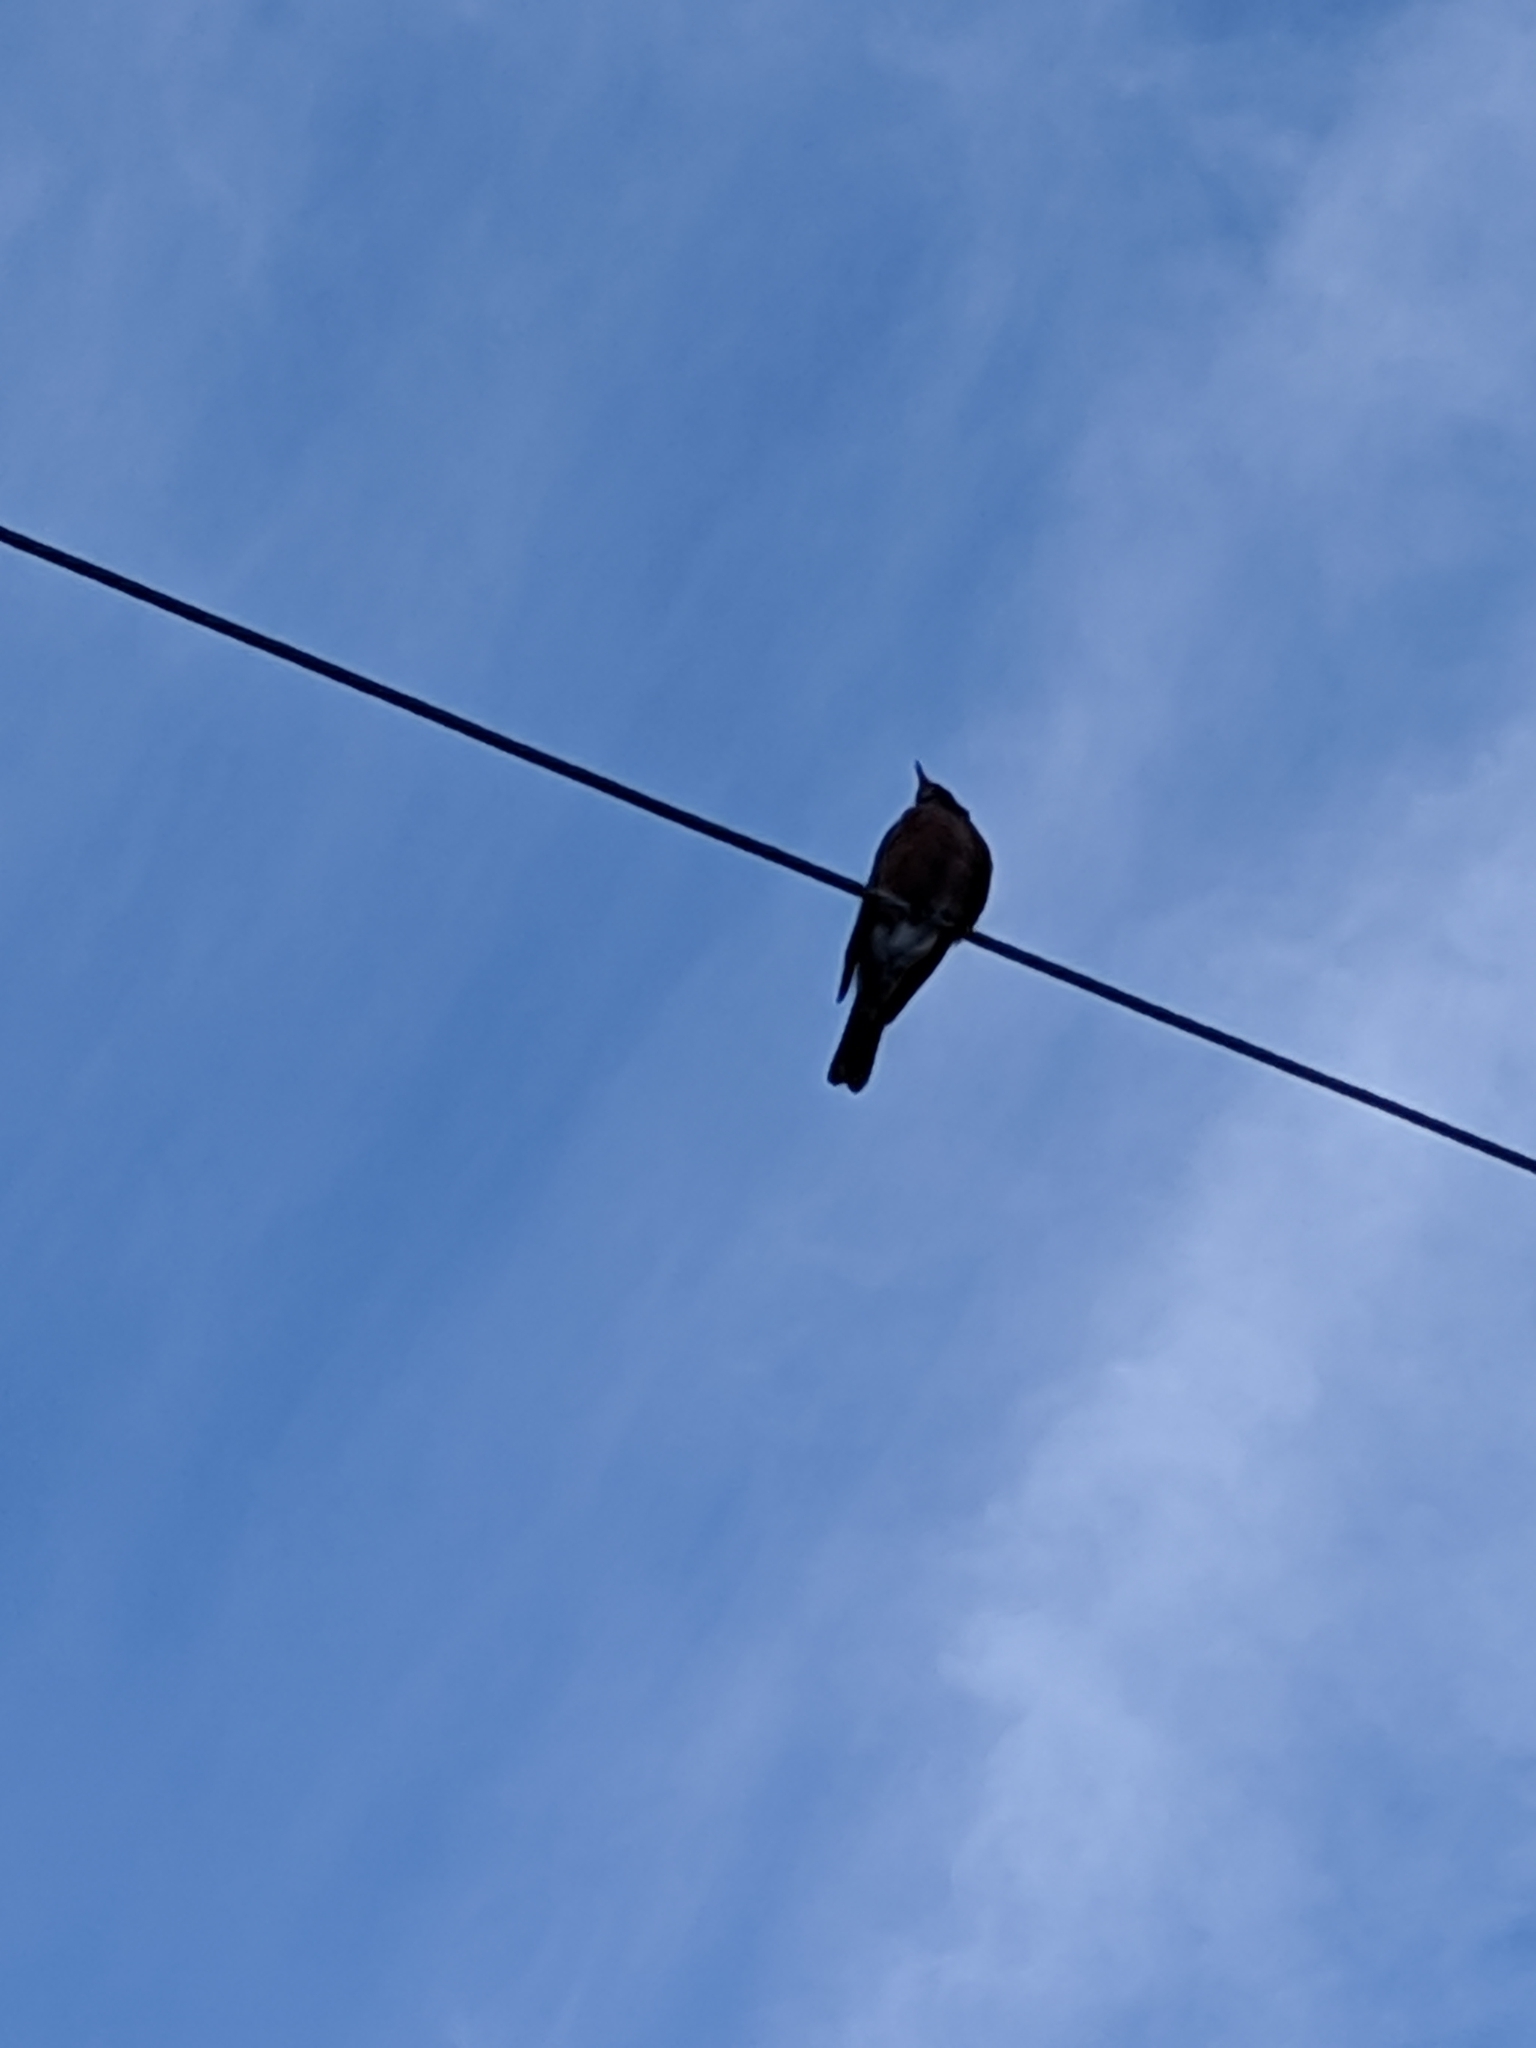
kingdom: Animalia
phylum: Chordata
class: Aves
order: Passeriformes
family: Turdidae
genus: Turdus
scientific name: Turdus migratorius
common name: American robin
